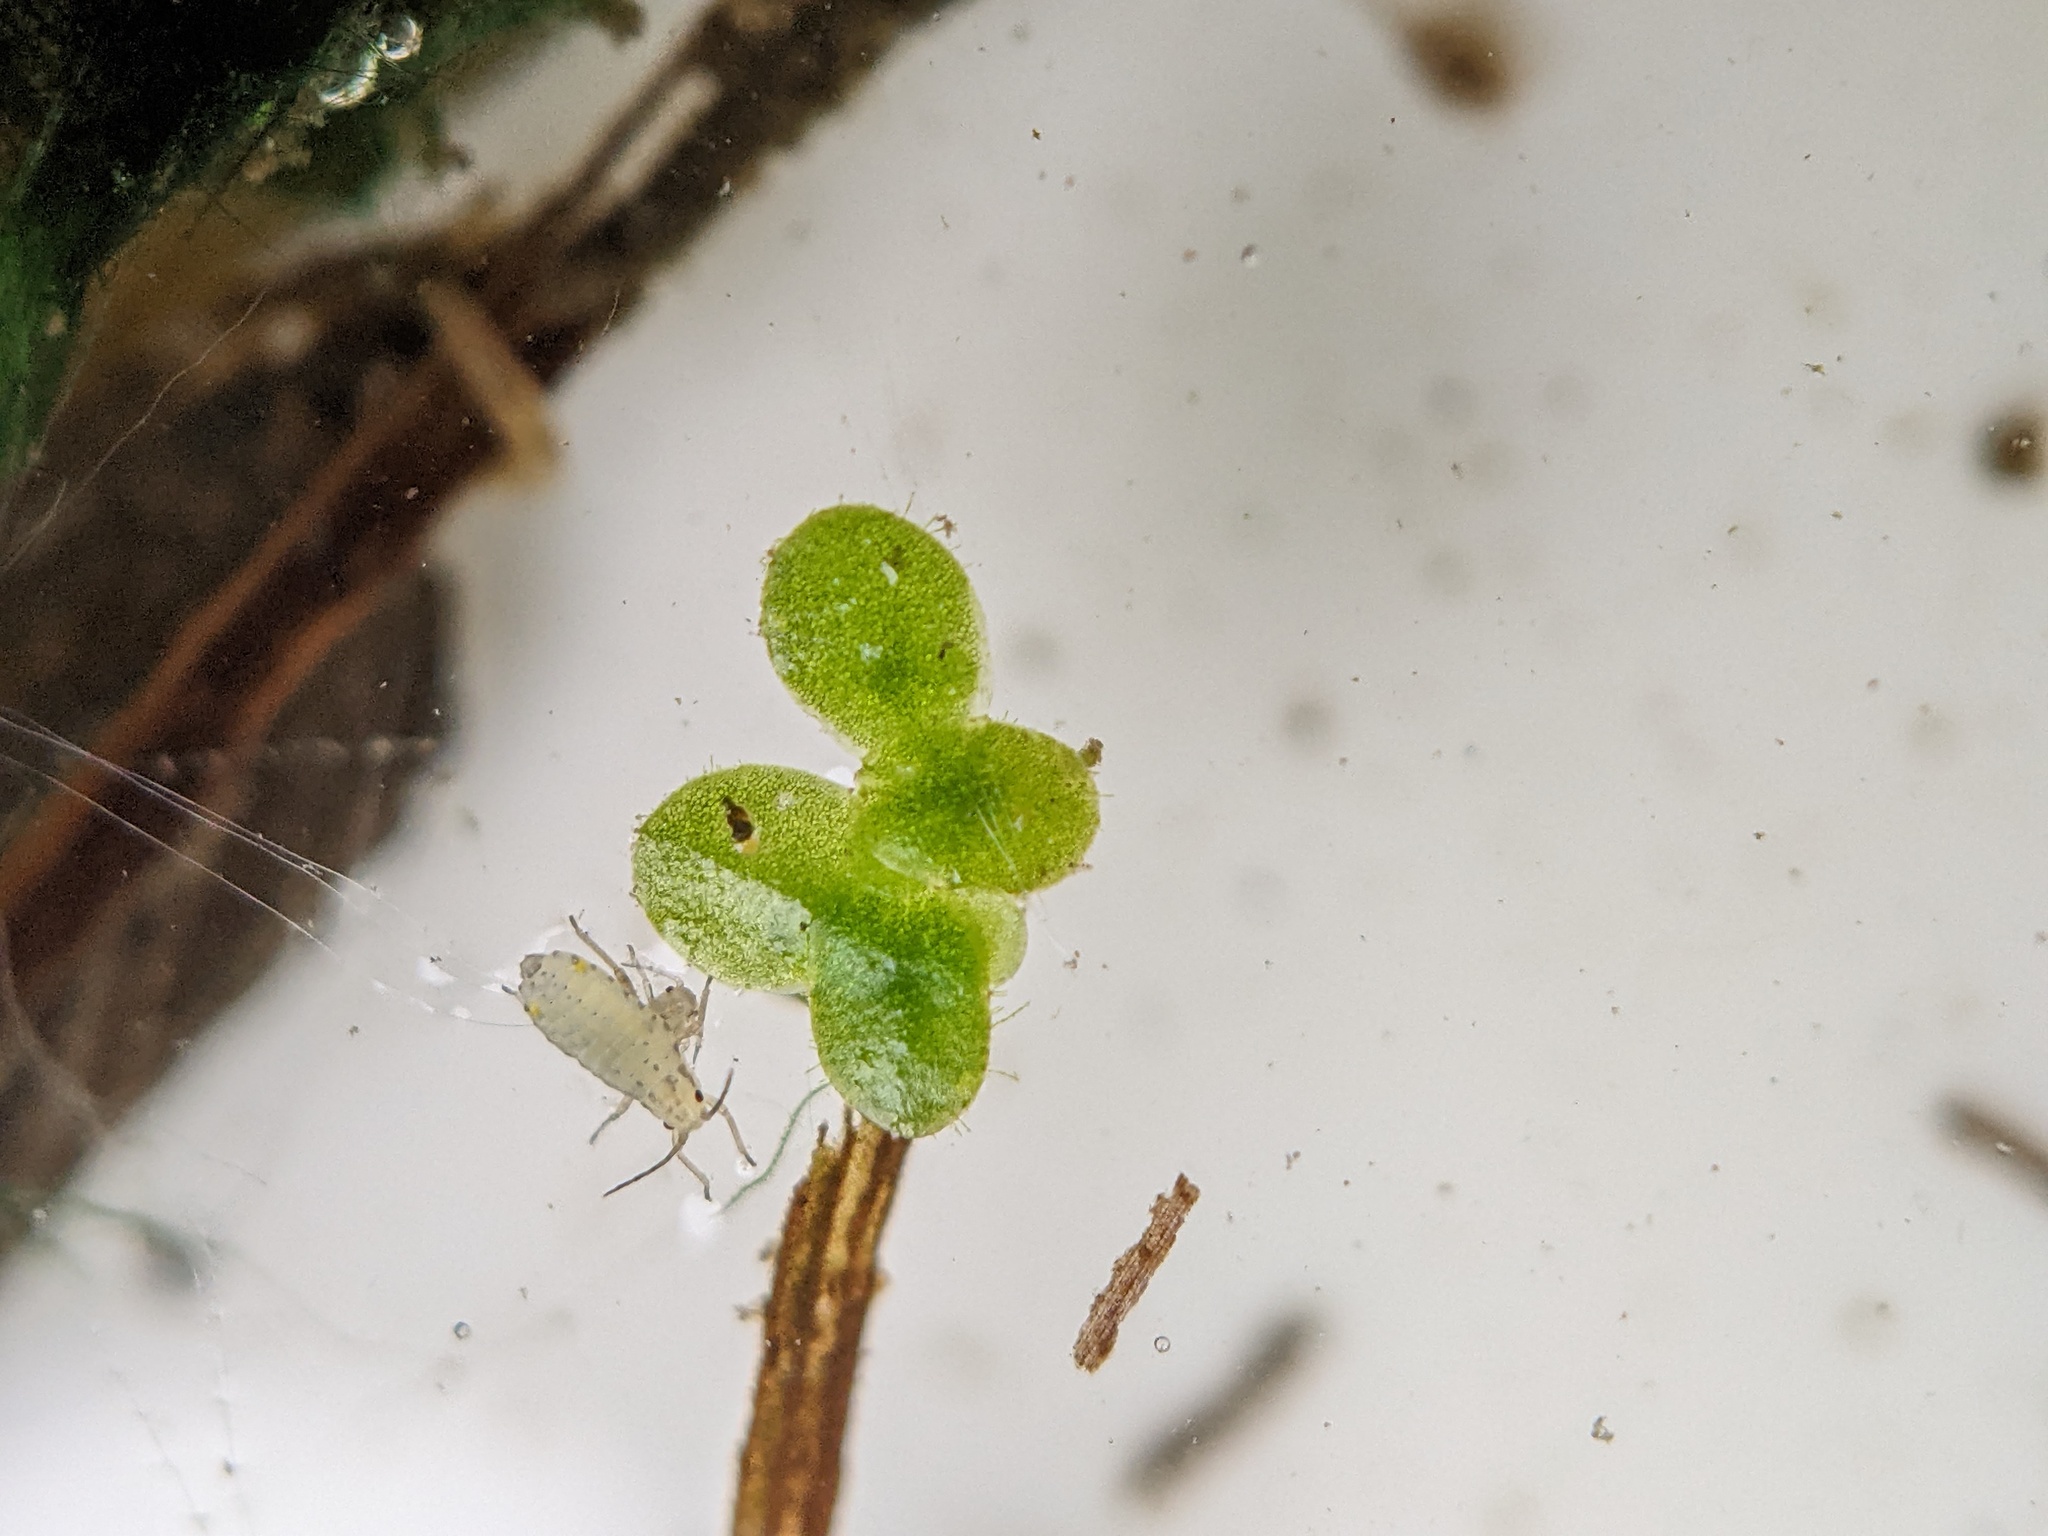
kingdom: Plantae
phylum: Tracheophyta
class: Liliopsida
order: Alismatales
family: Araceae
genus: Lemna
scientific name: Lemna minor
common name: Common duckweed
